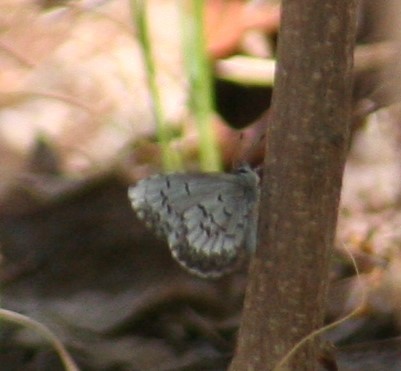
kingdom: Animalia
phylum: Arthropoda
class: Insecta
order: Lepidoptera
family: Lycaenidae
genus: Celastrina
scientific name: Celastrina lucia
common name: Lucia azure
